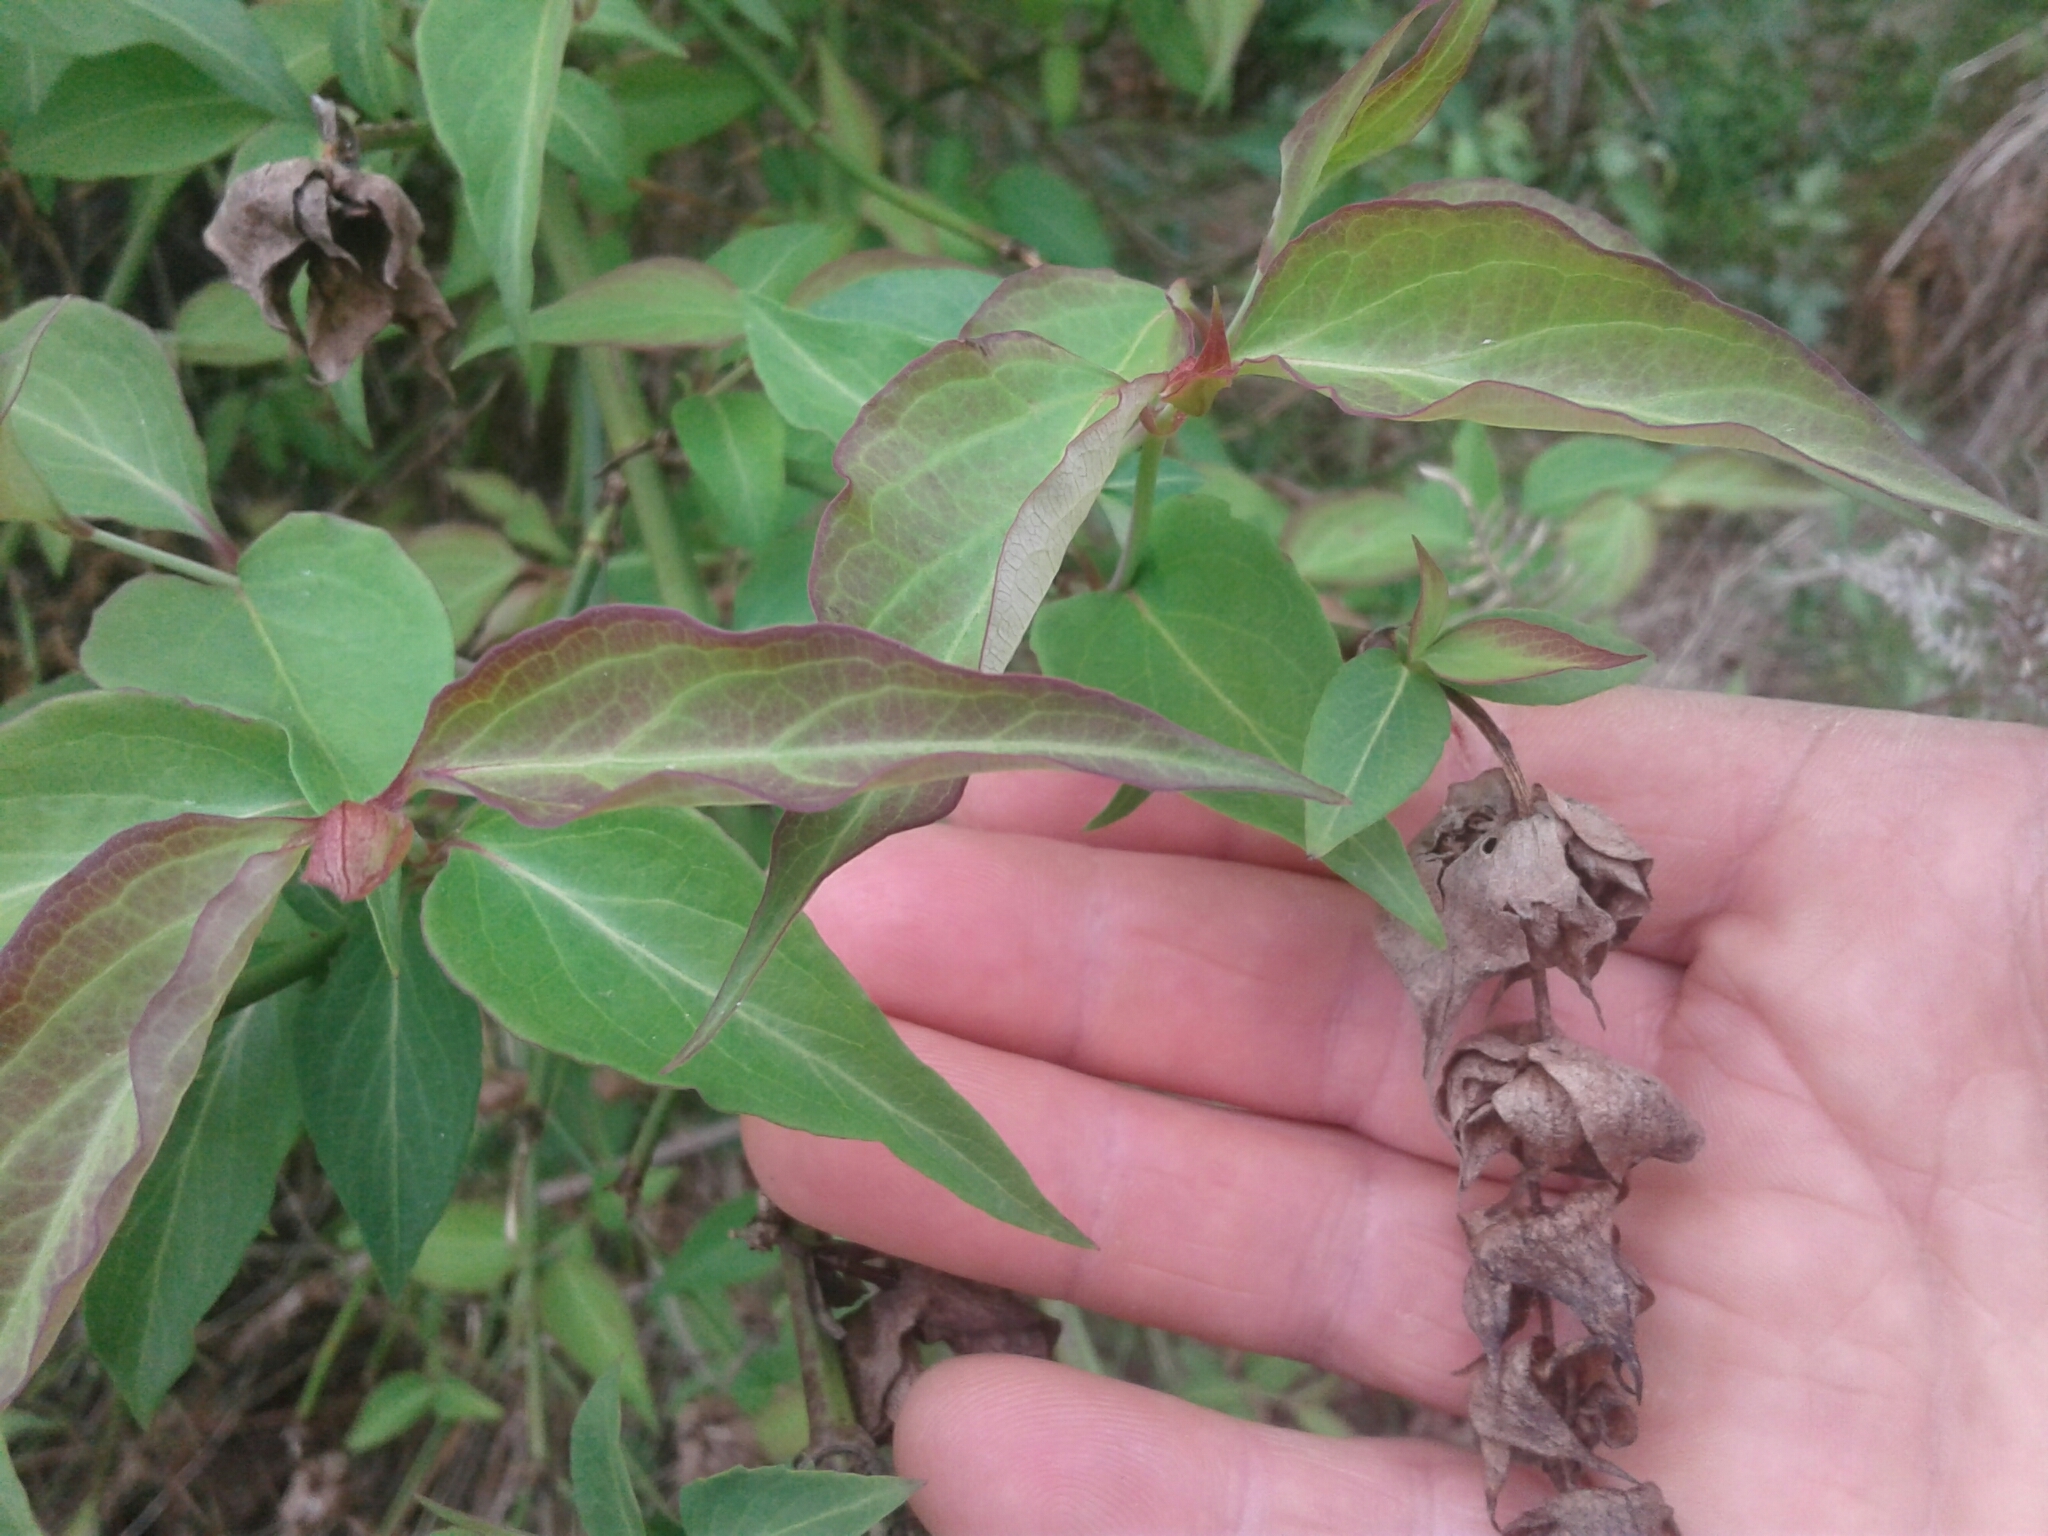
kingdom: Plantae
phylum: Tracheophyta
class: Magnoliopsida
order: Dipsacales
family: Caprifoliaceae
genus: Leycesteria
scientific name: Leycesteria formosa
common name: Himalayan honeysuckle
